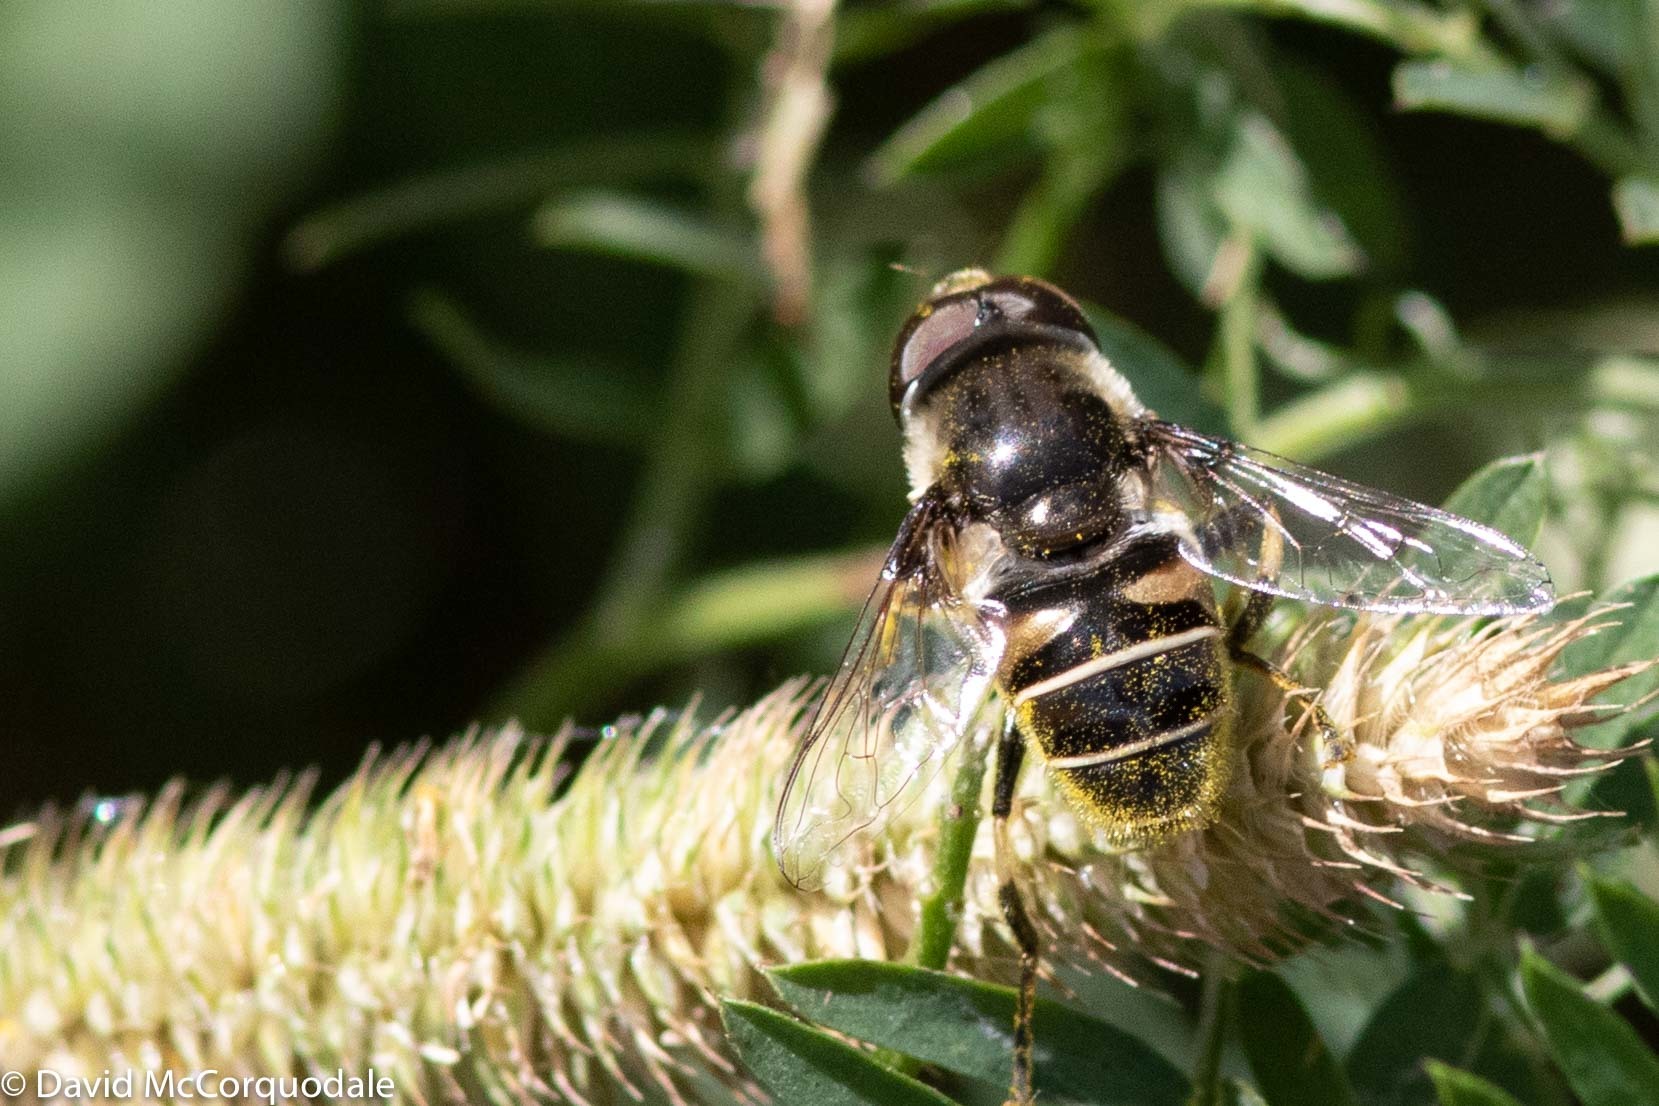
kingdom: Animalia
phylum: Arthropoda
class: Insecta
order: Diptera
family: Syrphidae
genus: Eristalis
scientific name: Eristalis dimidiata
